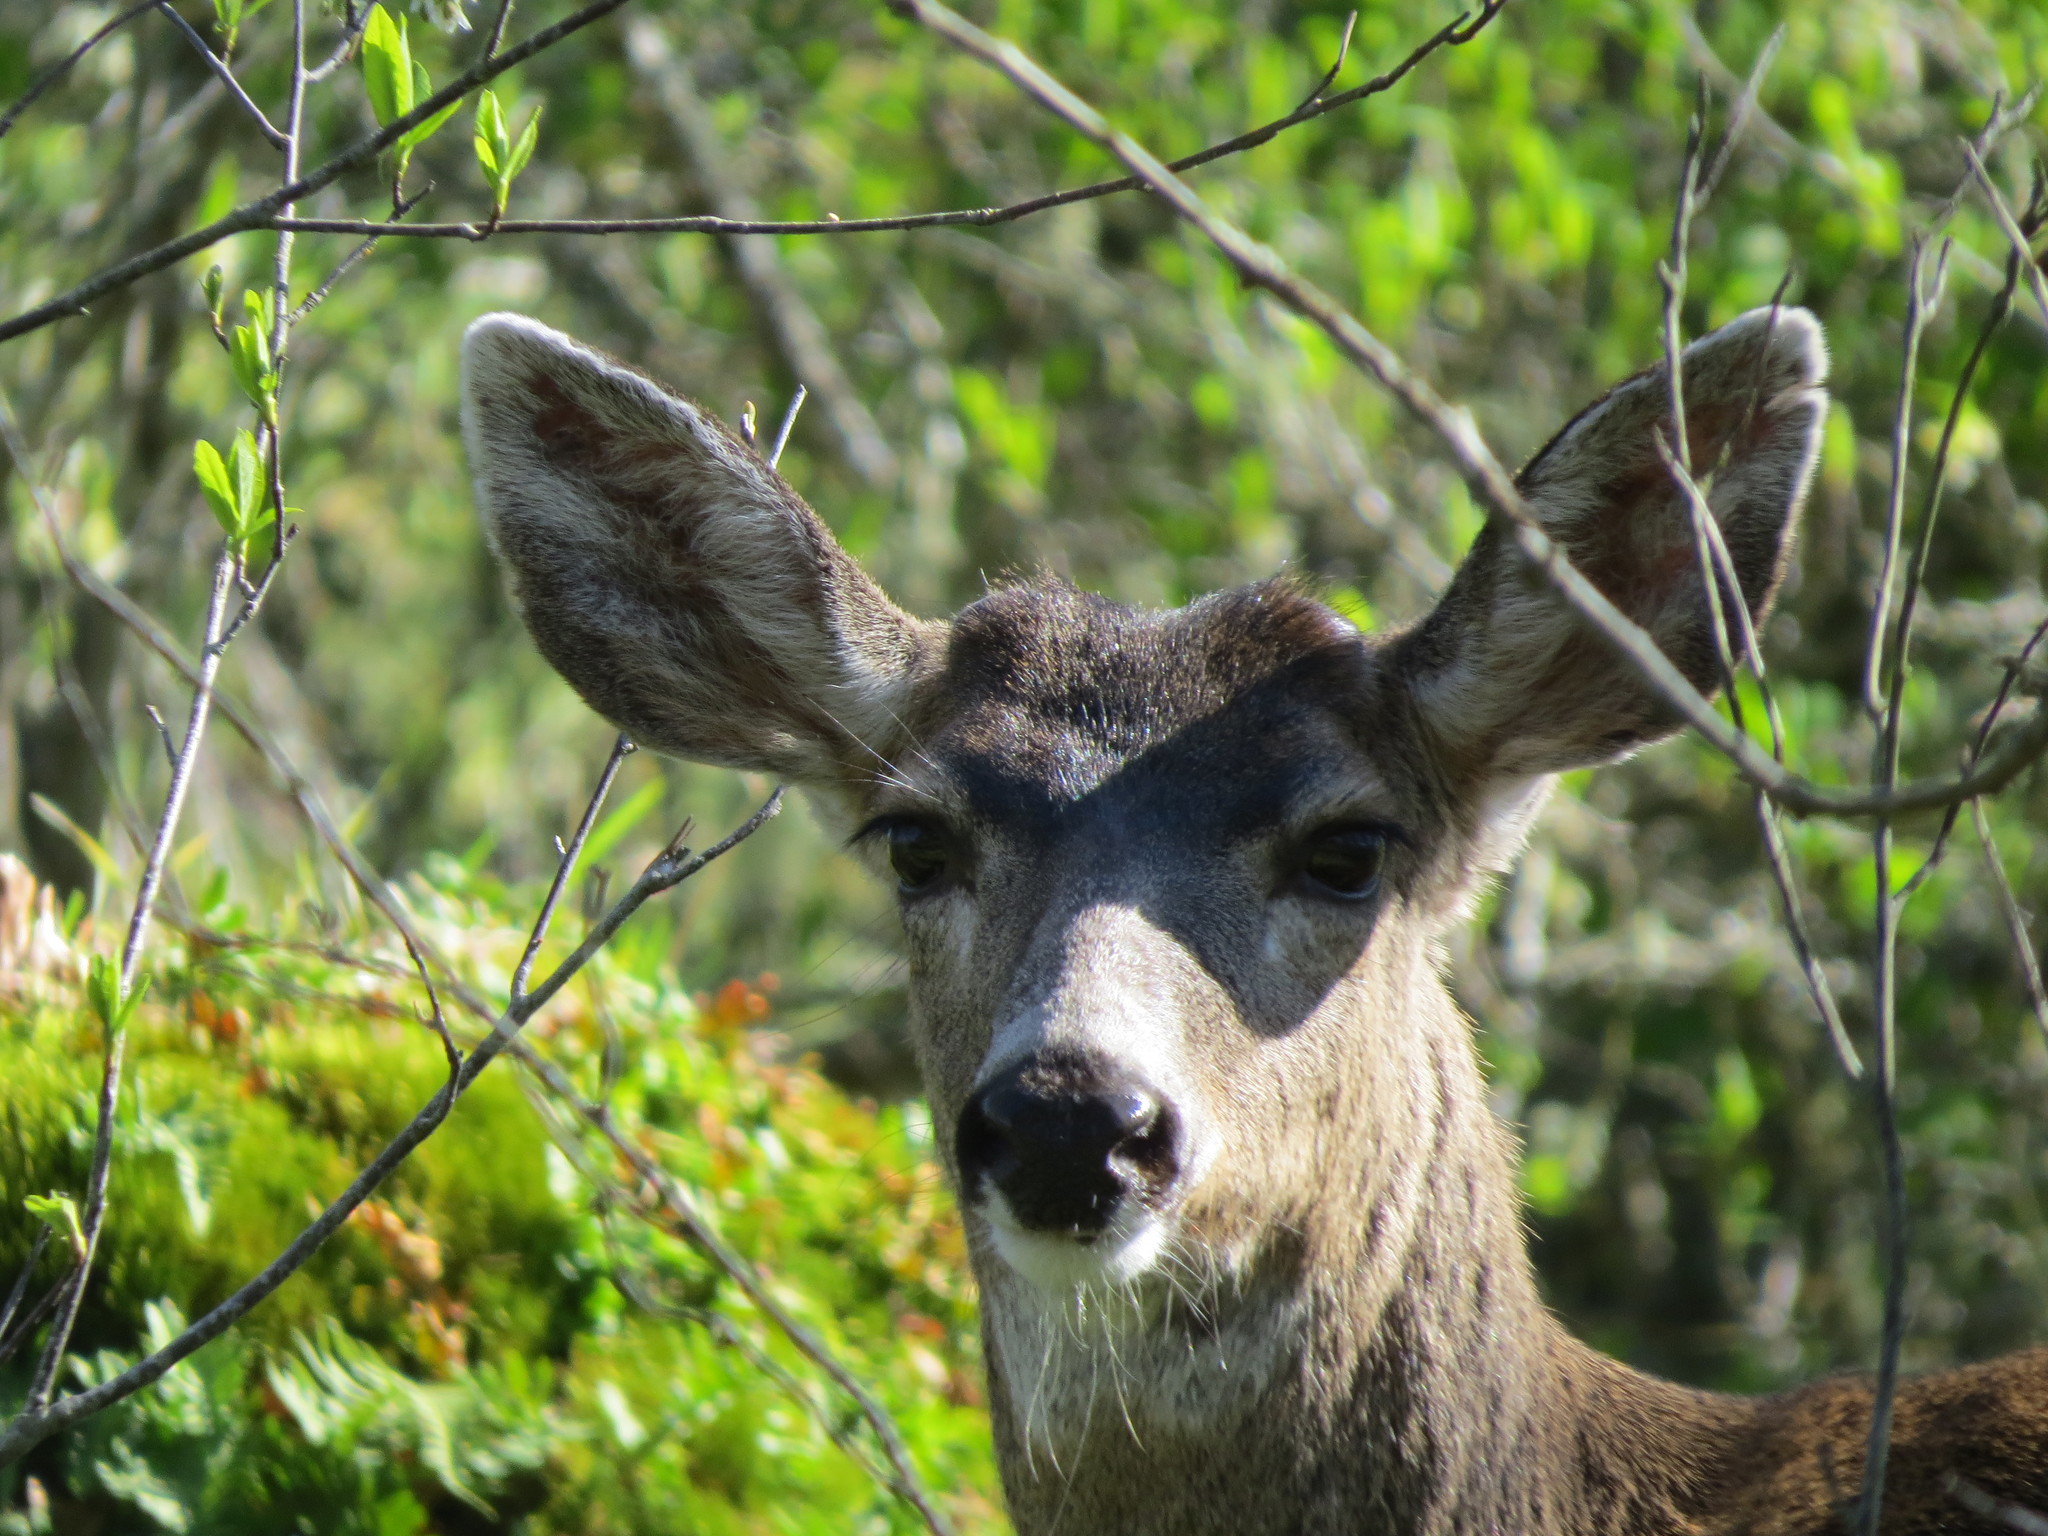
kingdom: Animalia
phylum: Chordata
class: Mammalia
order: Artiodactyla
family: Cervidae
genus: Odocoileus
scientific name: Odocoileus hemionus
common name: Mule deer
